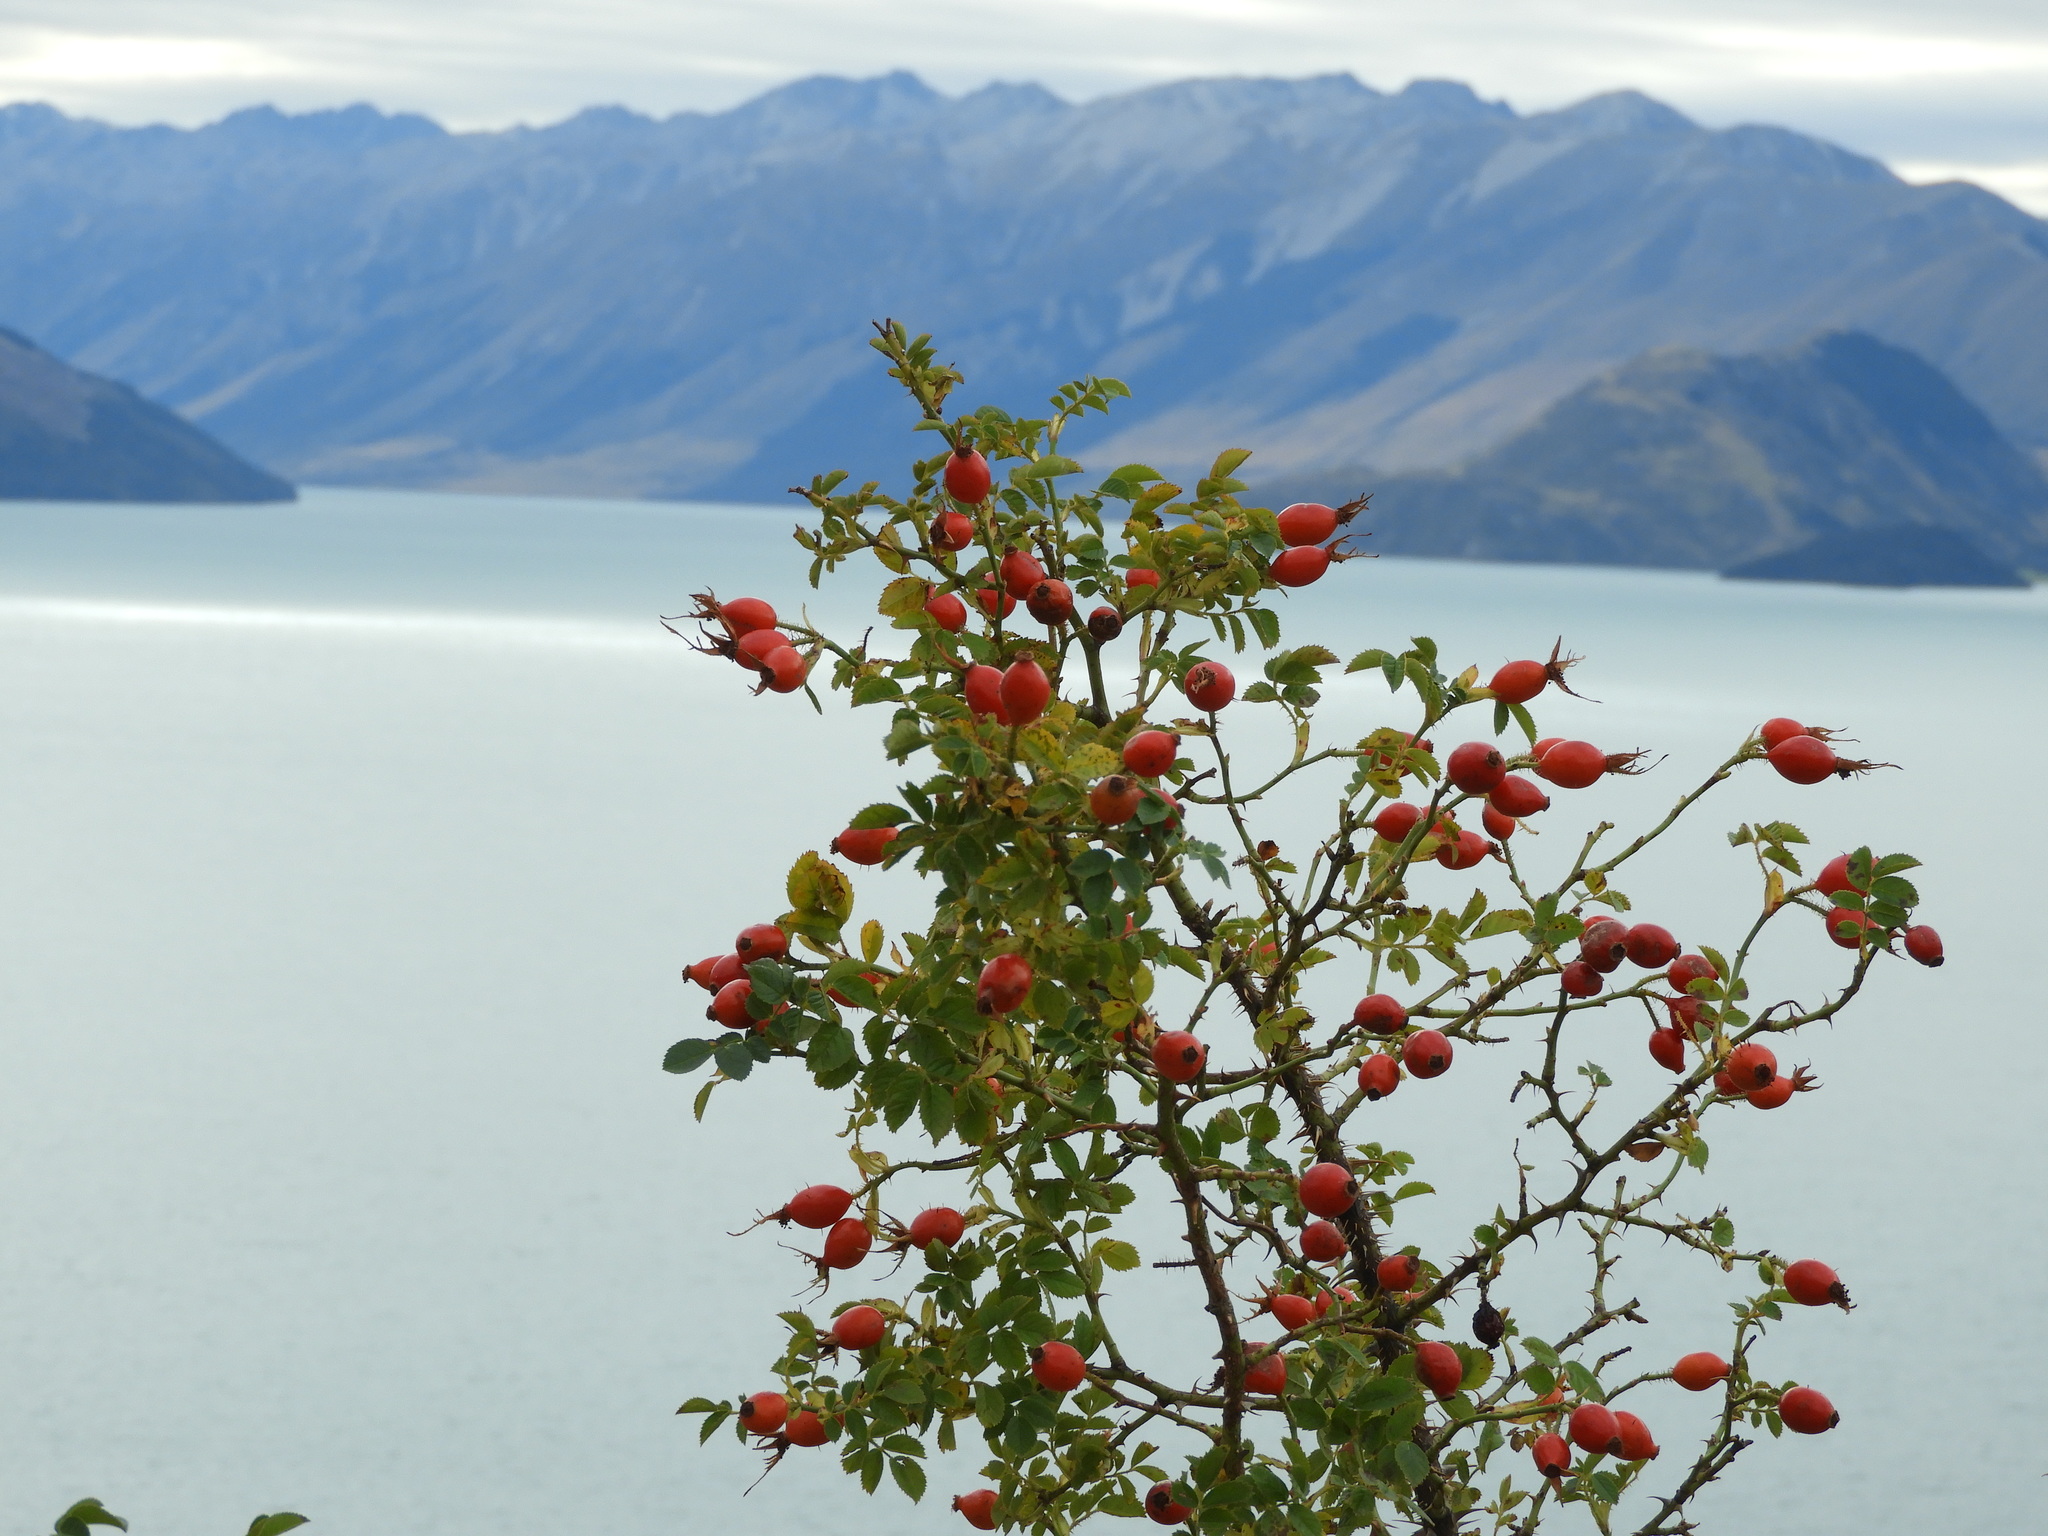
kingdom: Plantae
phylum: Tracheophyta
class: Magnoliopsida
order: Rosales
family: Rosaceae
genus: Rosa
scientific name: Rosa rubiginosa
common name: Sweet-briar
